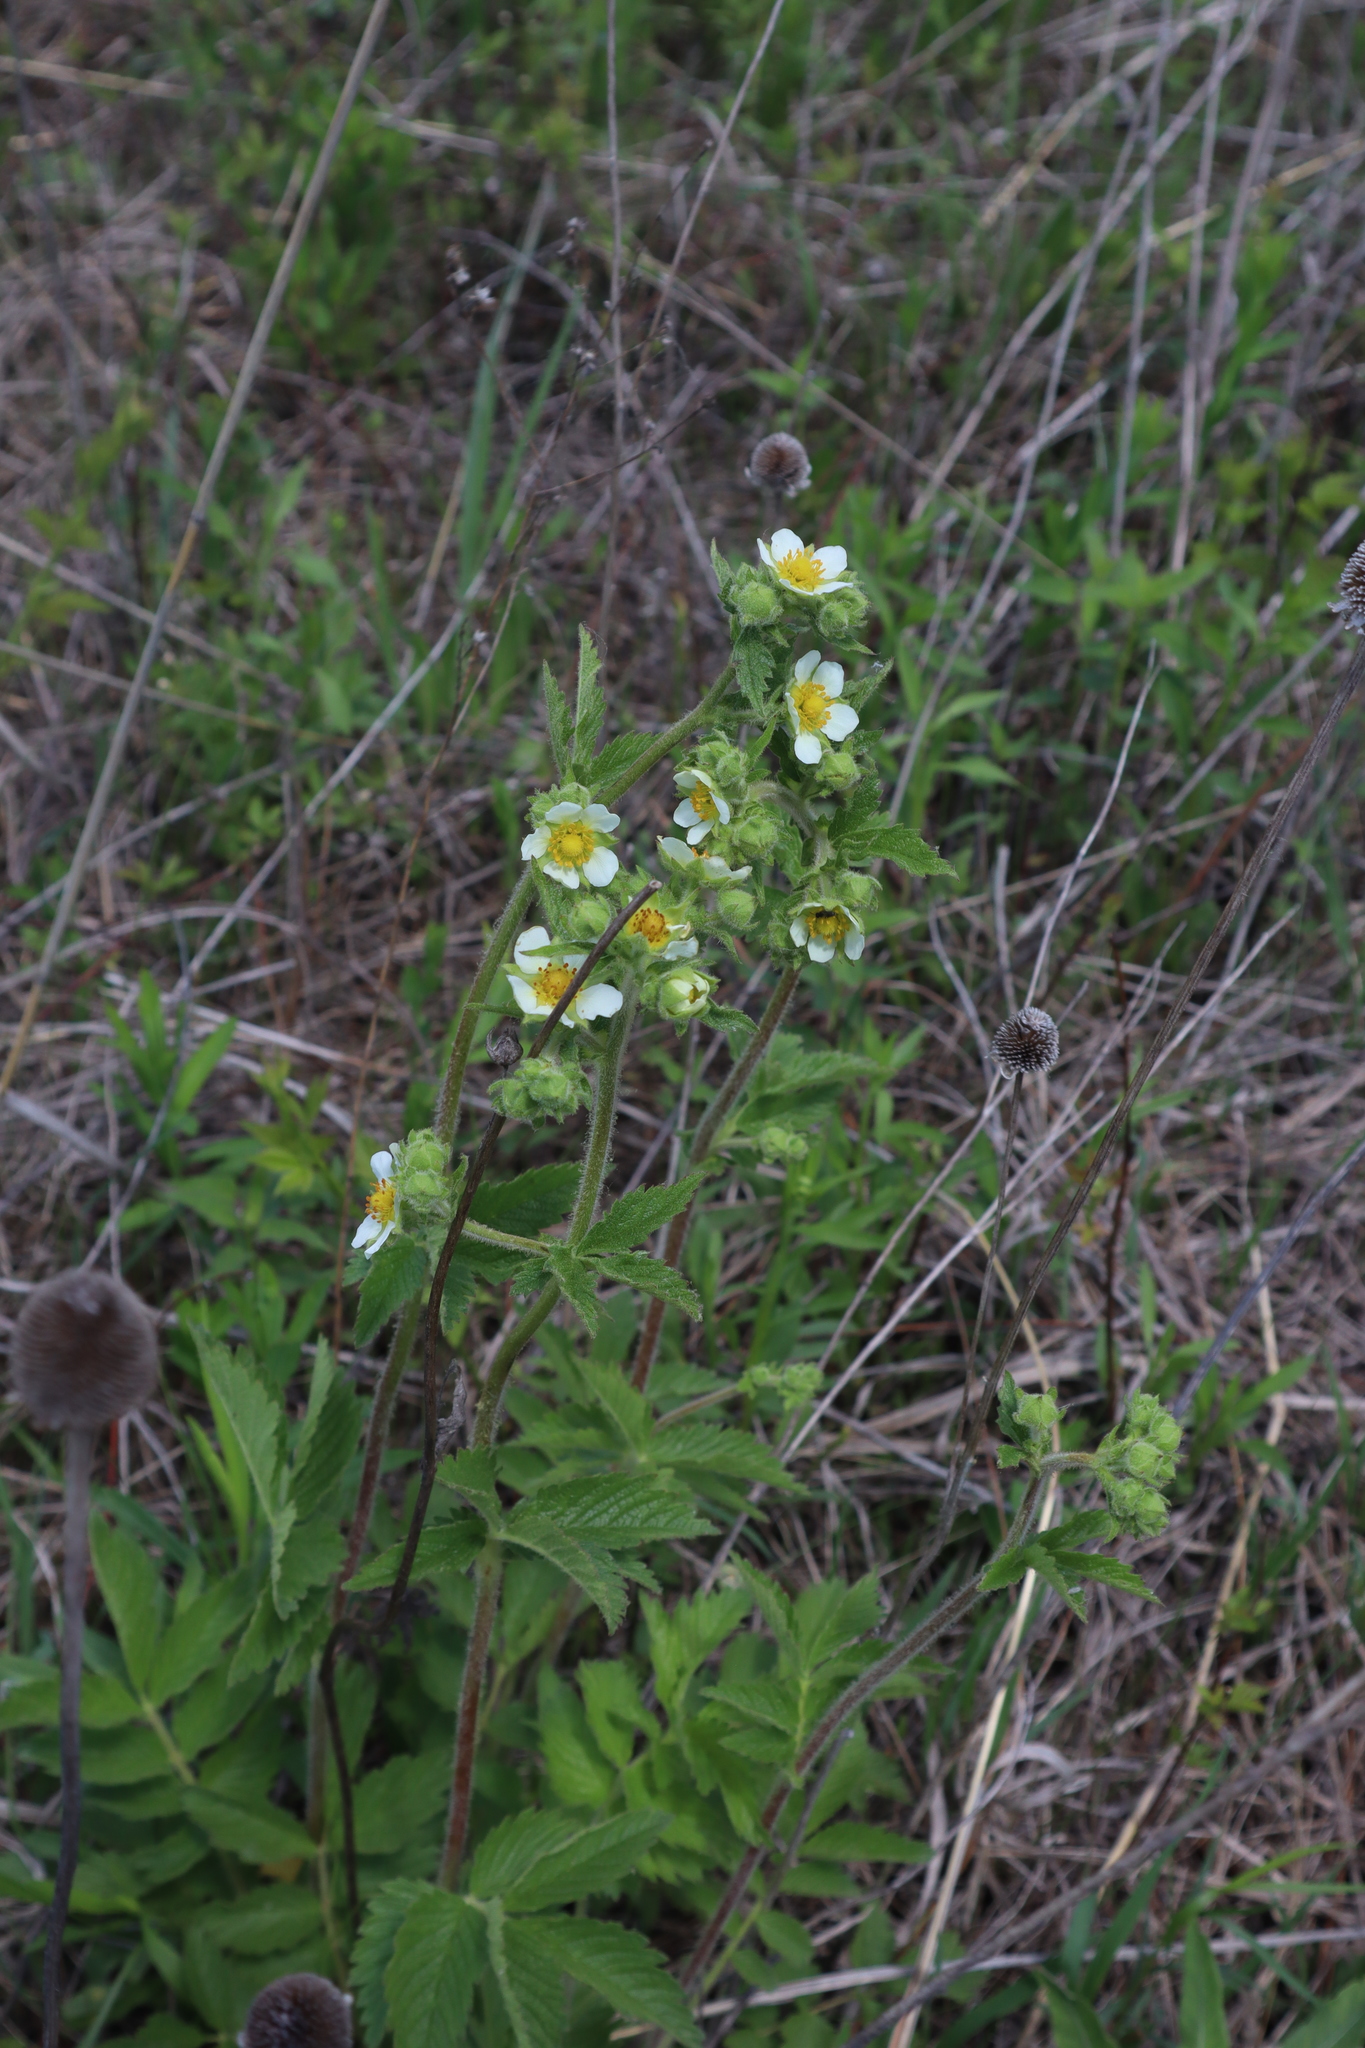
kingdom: Plantae
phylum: Tracheophyta
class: Magnoliopsida
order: Rosales
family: Rosaceae
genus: Drymocallis
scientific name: Drymocallis arguta
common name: Tall cinquefoil
